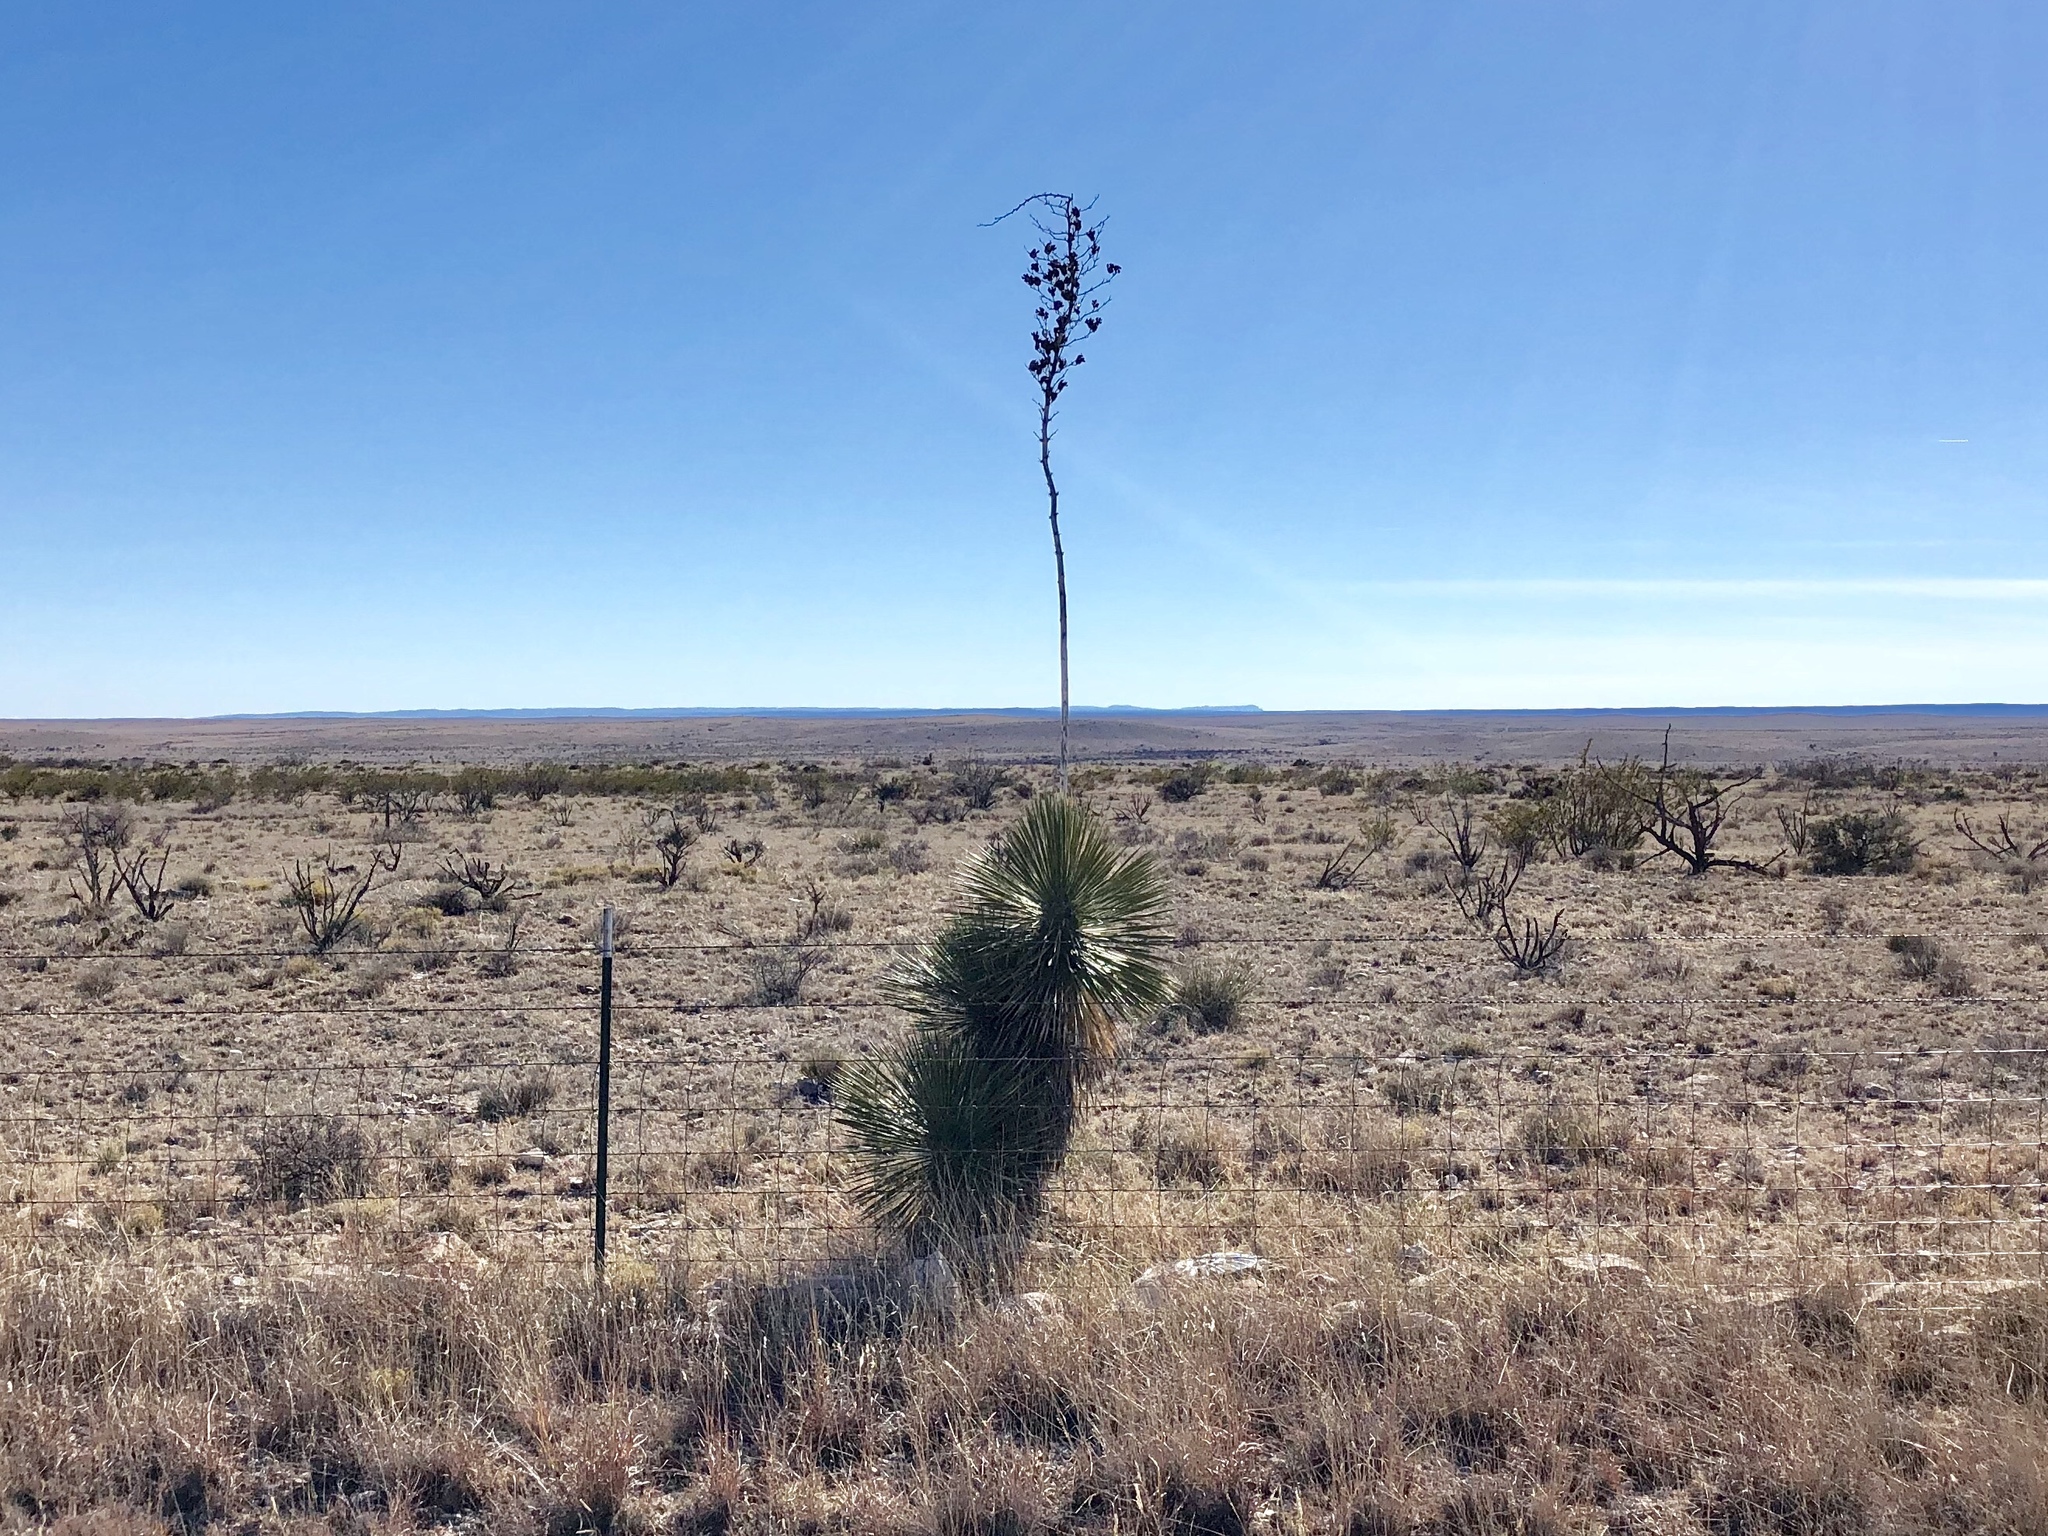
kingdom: Plantae
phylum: Tracheophyta
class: Liliopsida
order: Asparagales
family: Asparagaceae
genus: Yucca
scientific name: Yucca elata
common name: Palmella
